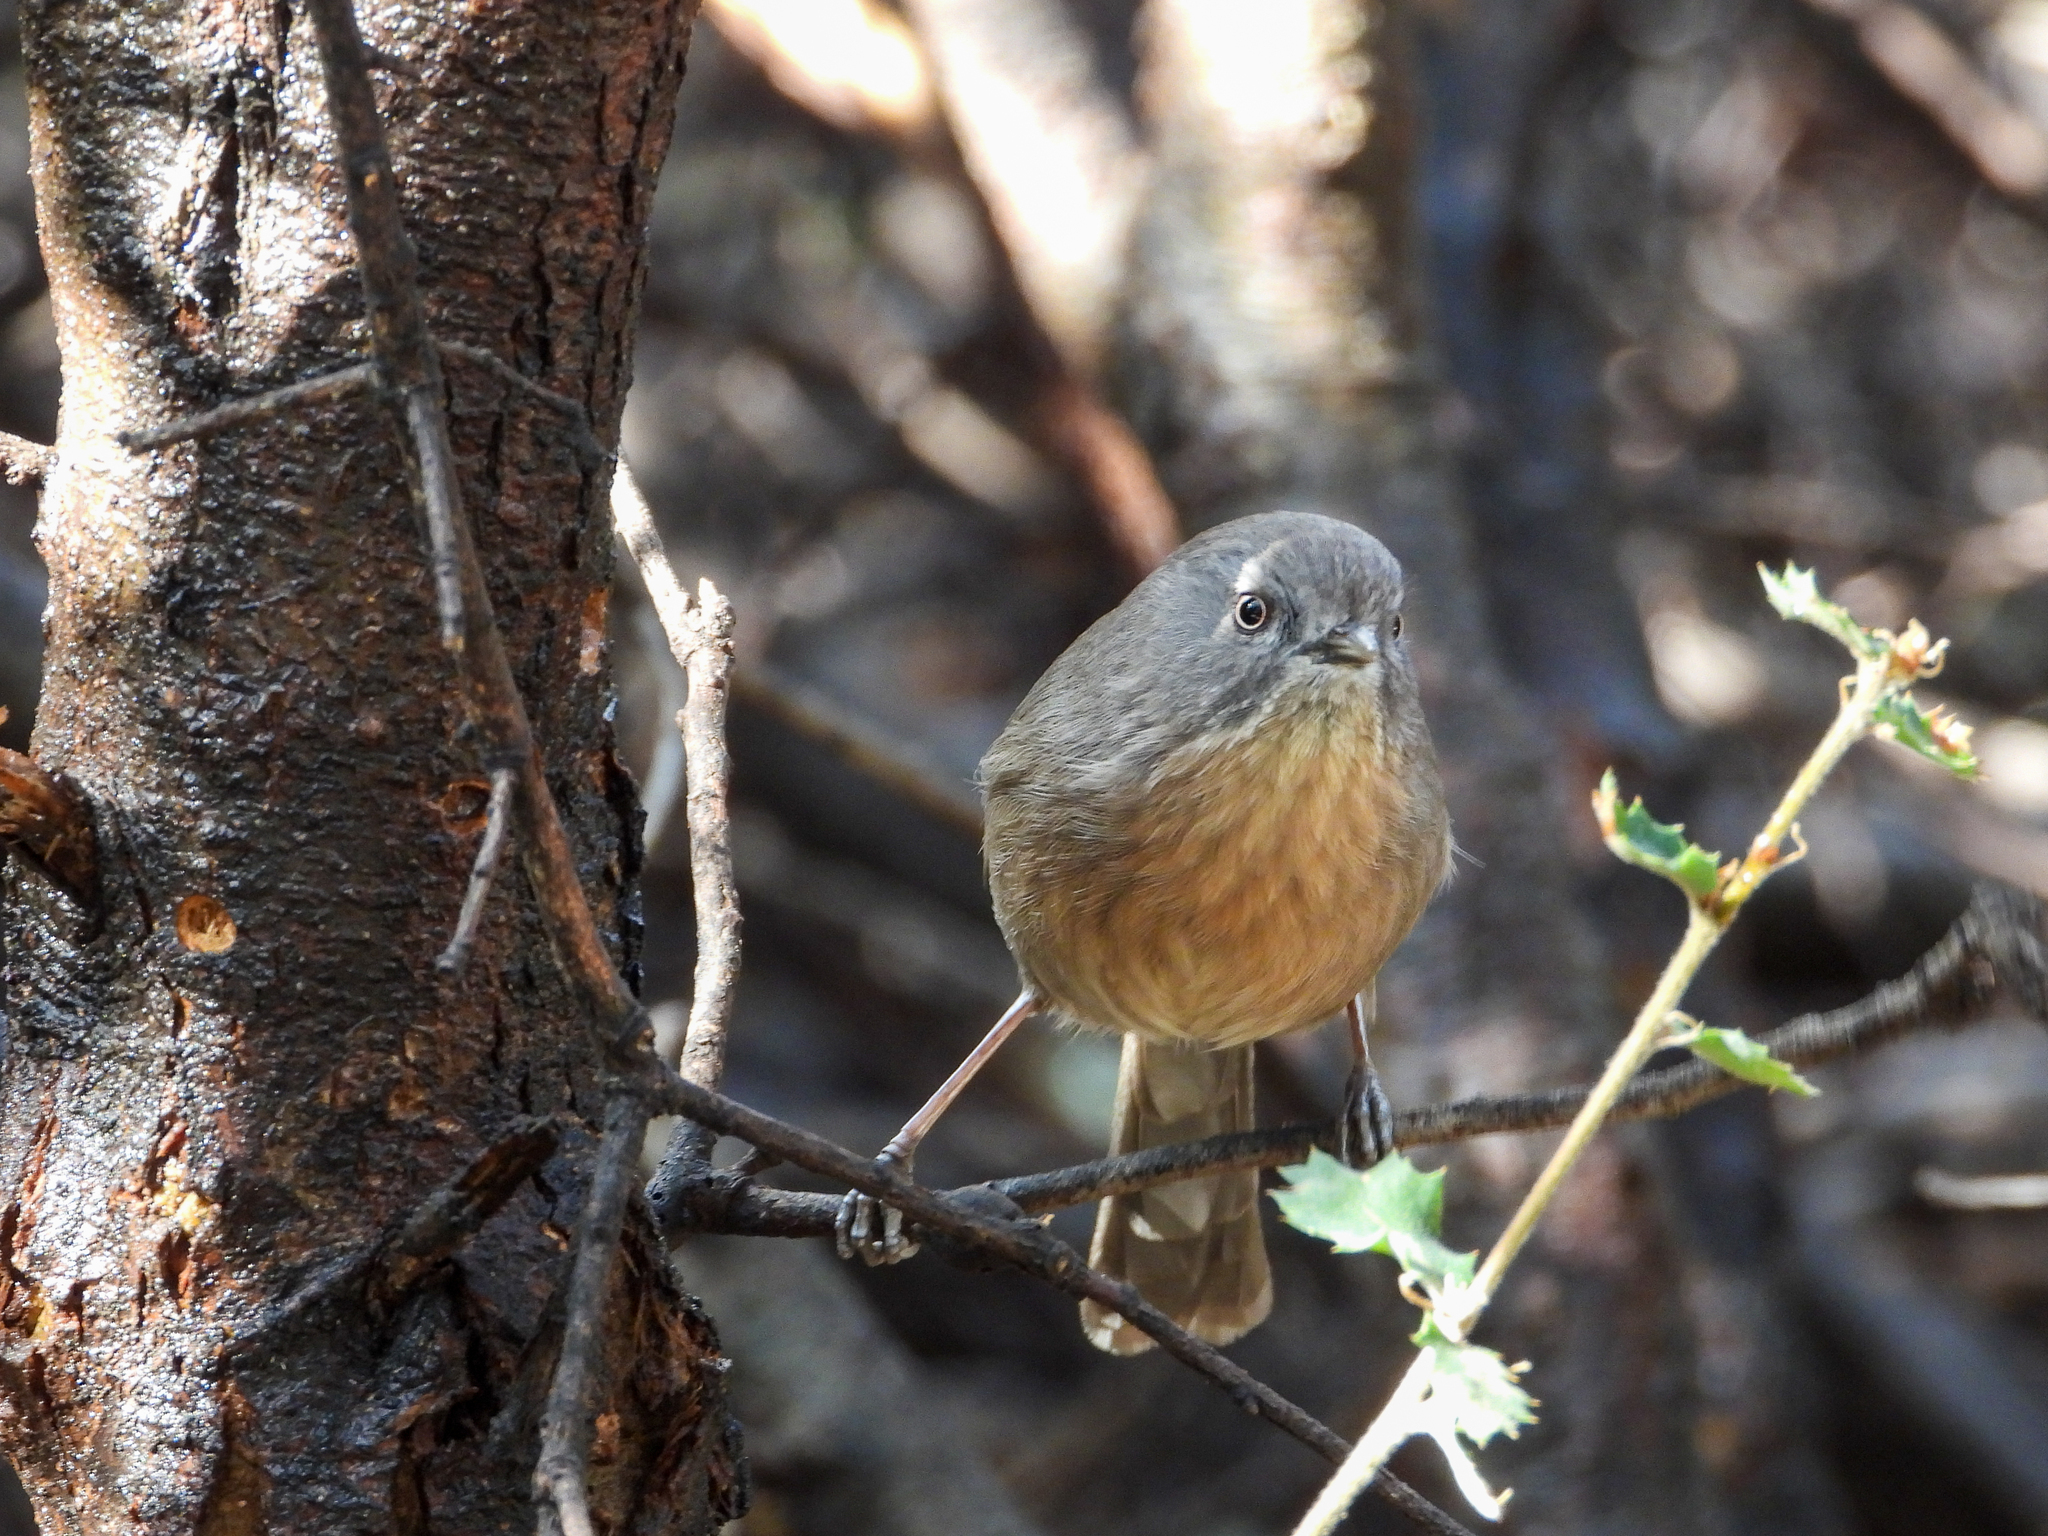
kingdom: Animalia
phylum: Chordata
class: Aves
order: Passeriformes
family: Sylviidae
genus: Chamaea
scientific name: Chamaea fasciata
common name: Wrentit
